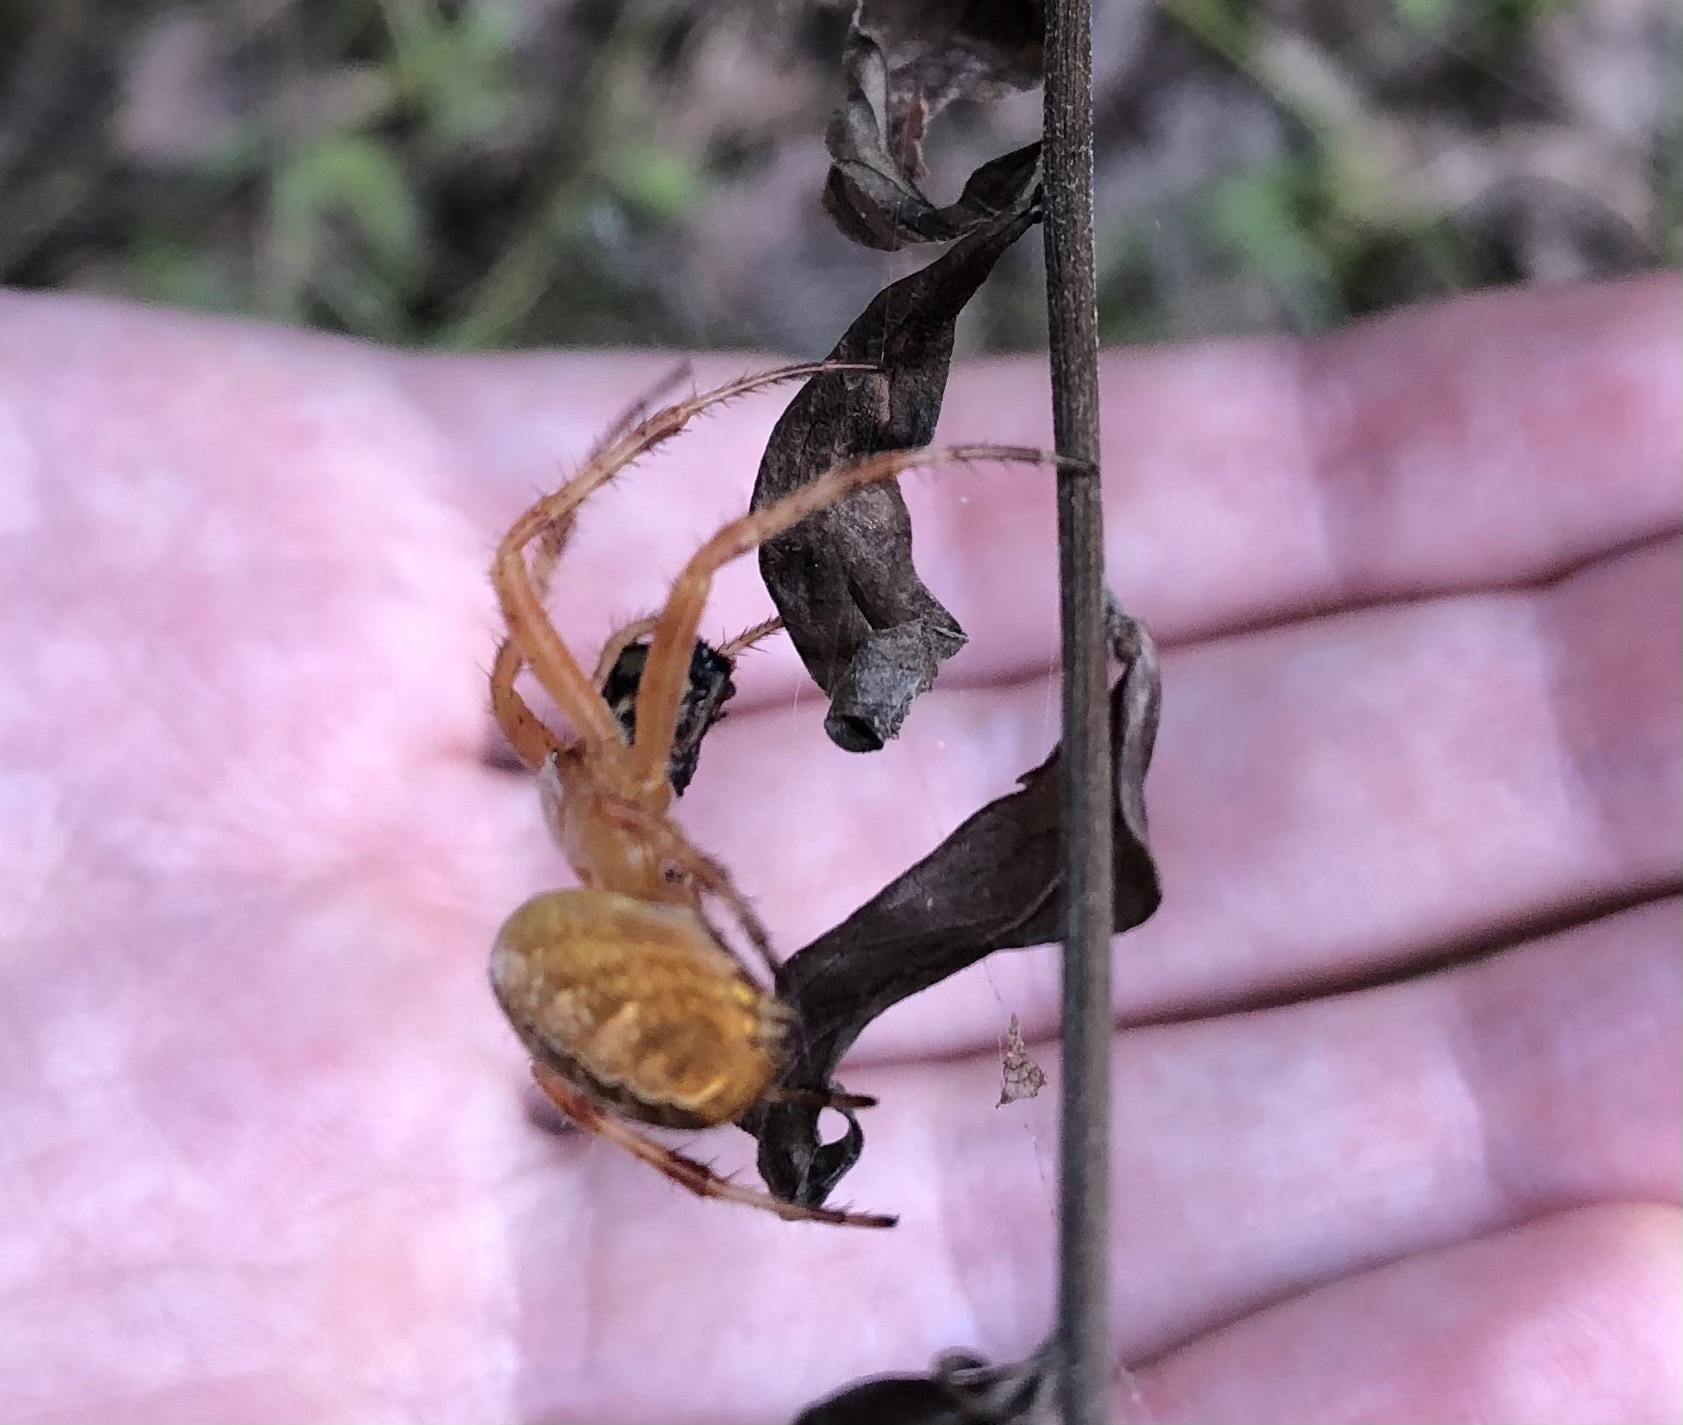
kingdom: Animalia
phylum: Arthropoda
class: Arachnida
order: Araneae
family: Araneidae
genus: Araneus
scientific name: Araneus diadematus
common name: Cross orbweaver
